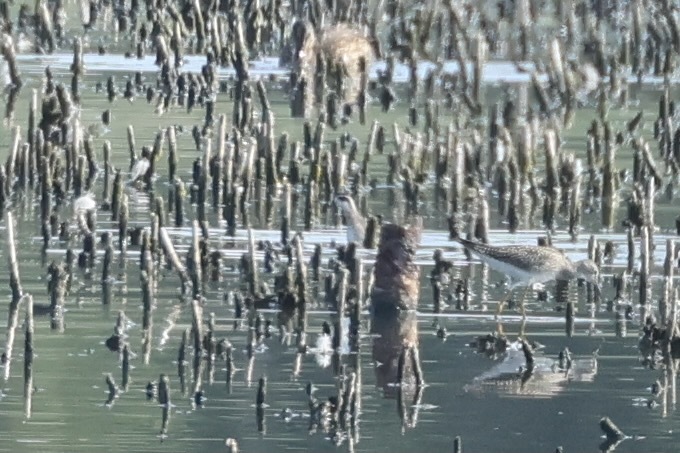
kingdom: Animalia
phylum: Chordata
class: Aves
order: Charadriiformes
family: Scolopacidae
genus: Phalaropus
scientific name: Phalaropus lobatus
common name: Red-necked phalarope
